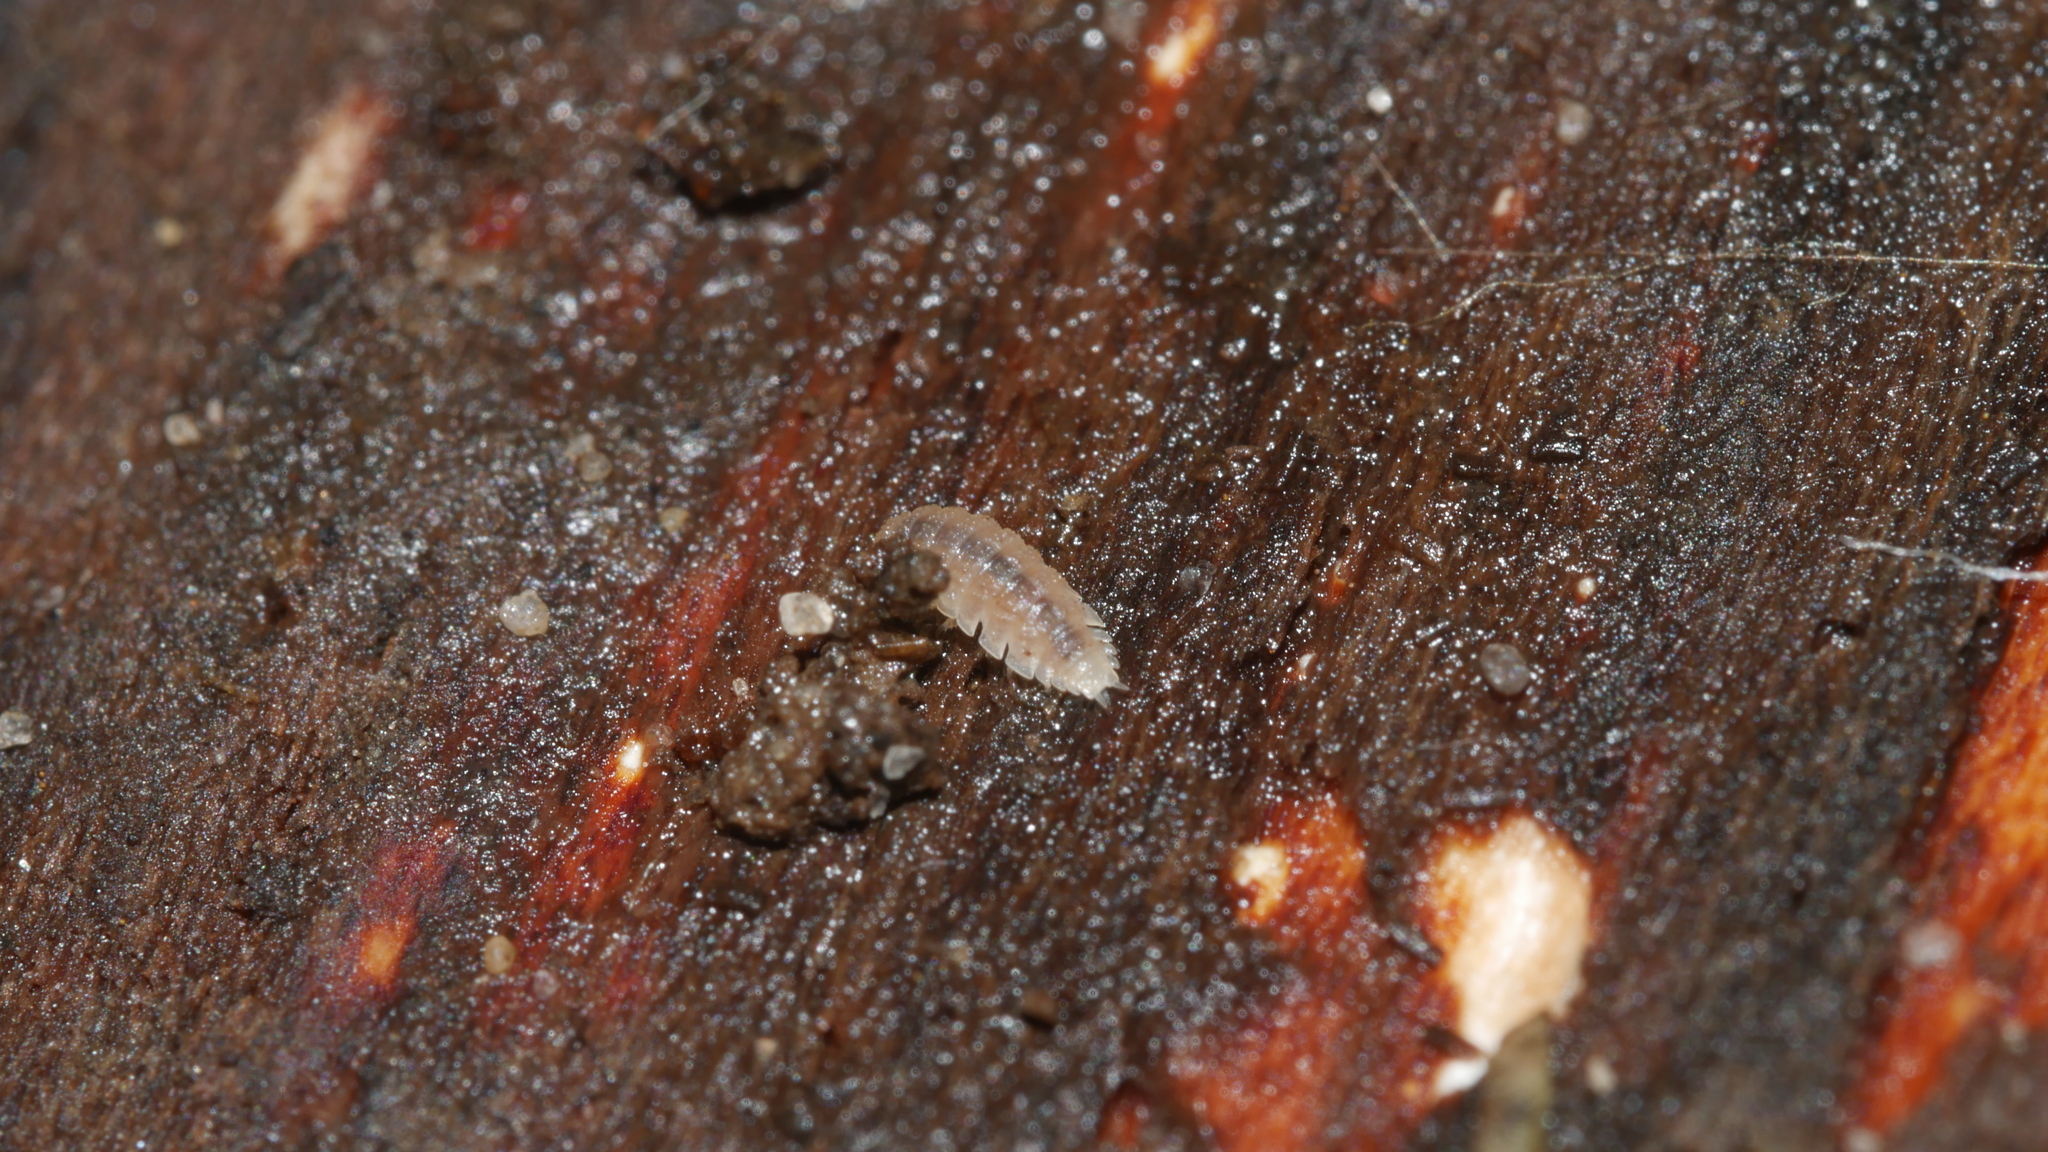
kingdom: Animalia
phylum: Arthropoda
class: Malacostraca
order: Isopoda
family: Trichoniscidae
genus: Haplophthalmus
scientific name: Haplophthalmus danicus
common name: Pillbug
